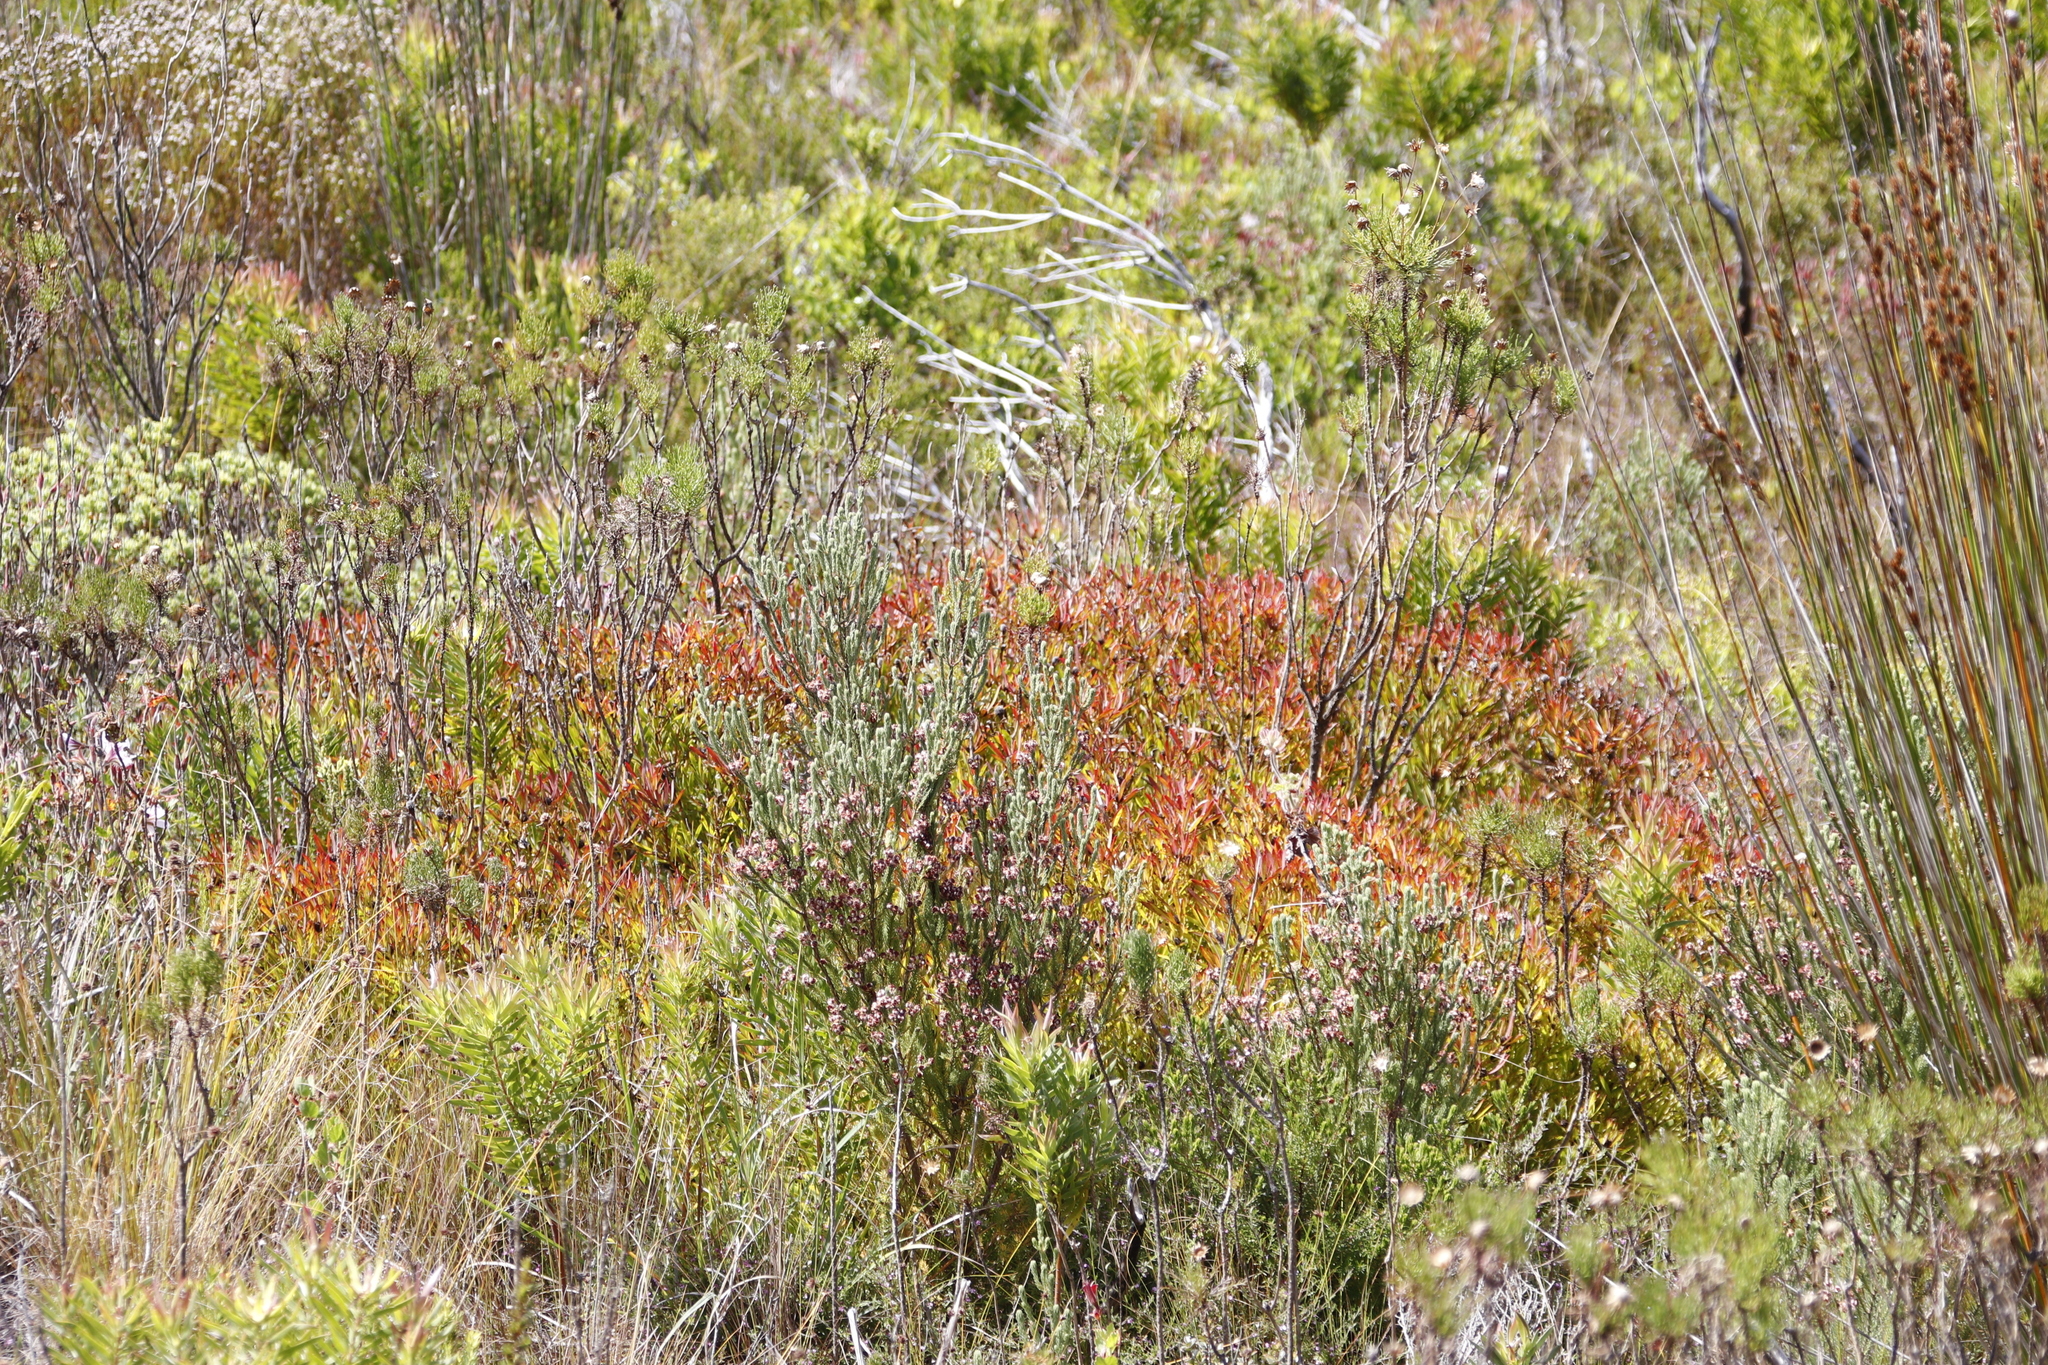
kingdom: Plantae
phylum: Tracheophyta
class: Magnoliopsida
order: Proteales
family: Proteaceae
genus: Leucadendron
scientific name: Leucadendron salignum
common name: Common sunshine conebush
